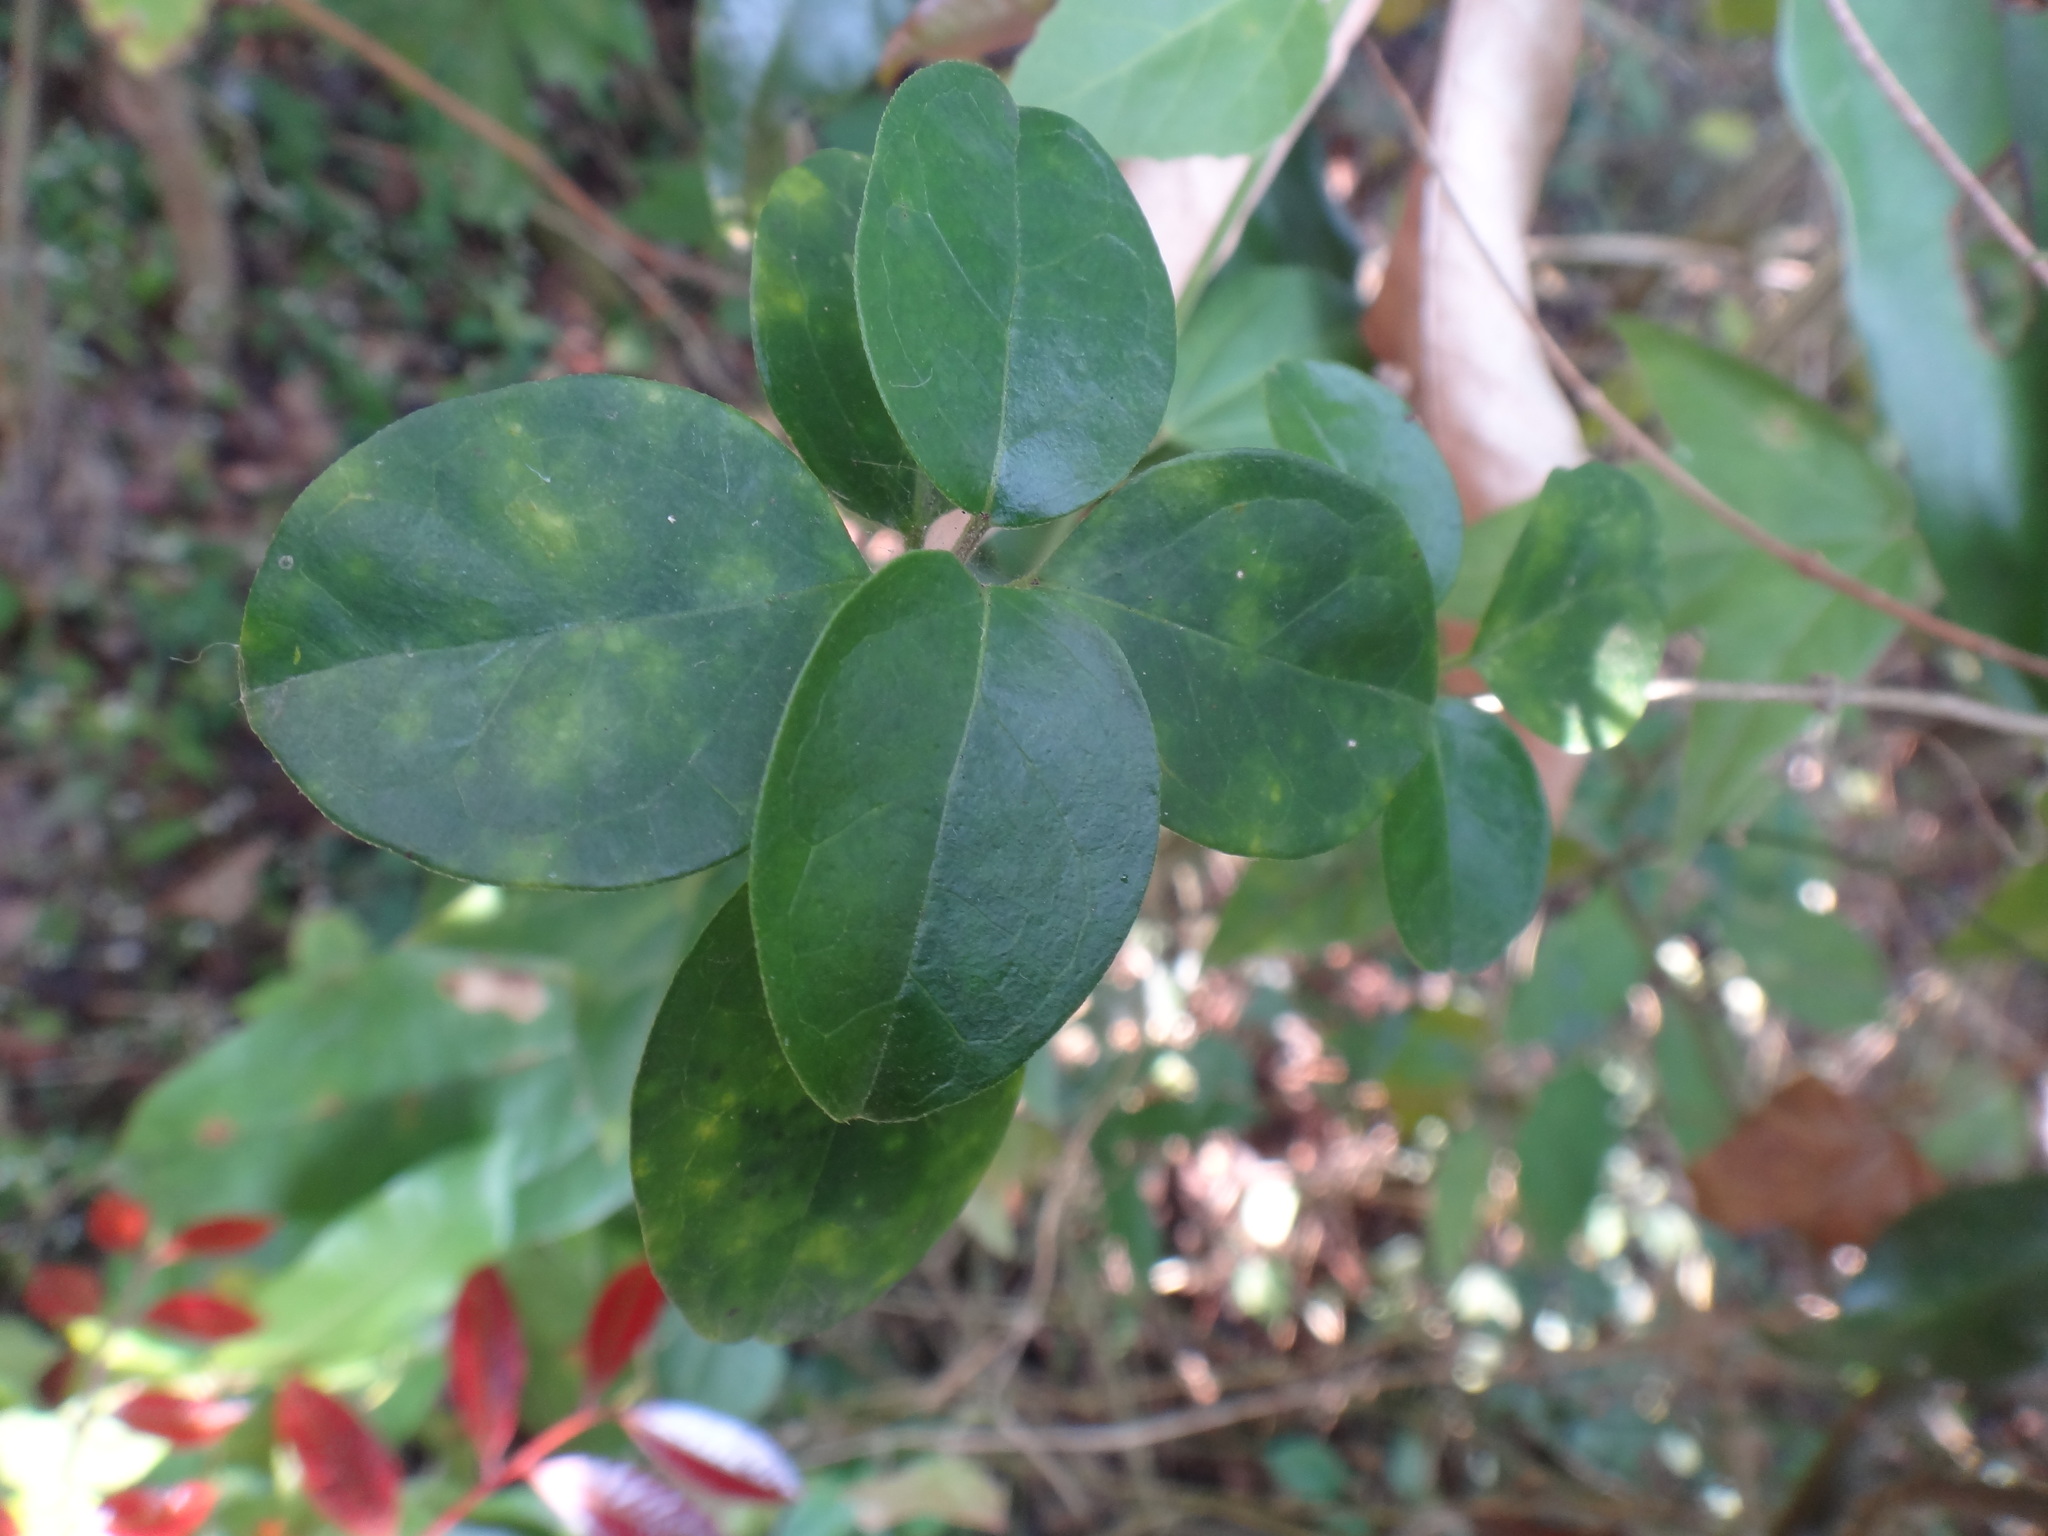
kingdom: Plantae
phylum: Tracheophyta
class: Magnoliopsida
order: Gentianales
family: Apocynaceae
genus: Gymnema
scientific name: Gymnema sylvestre
